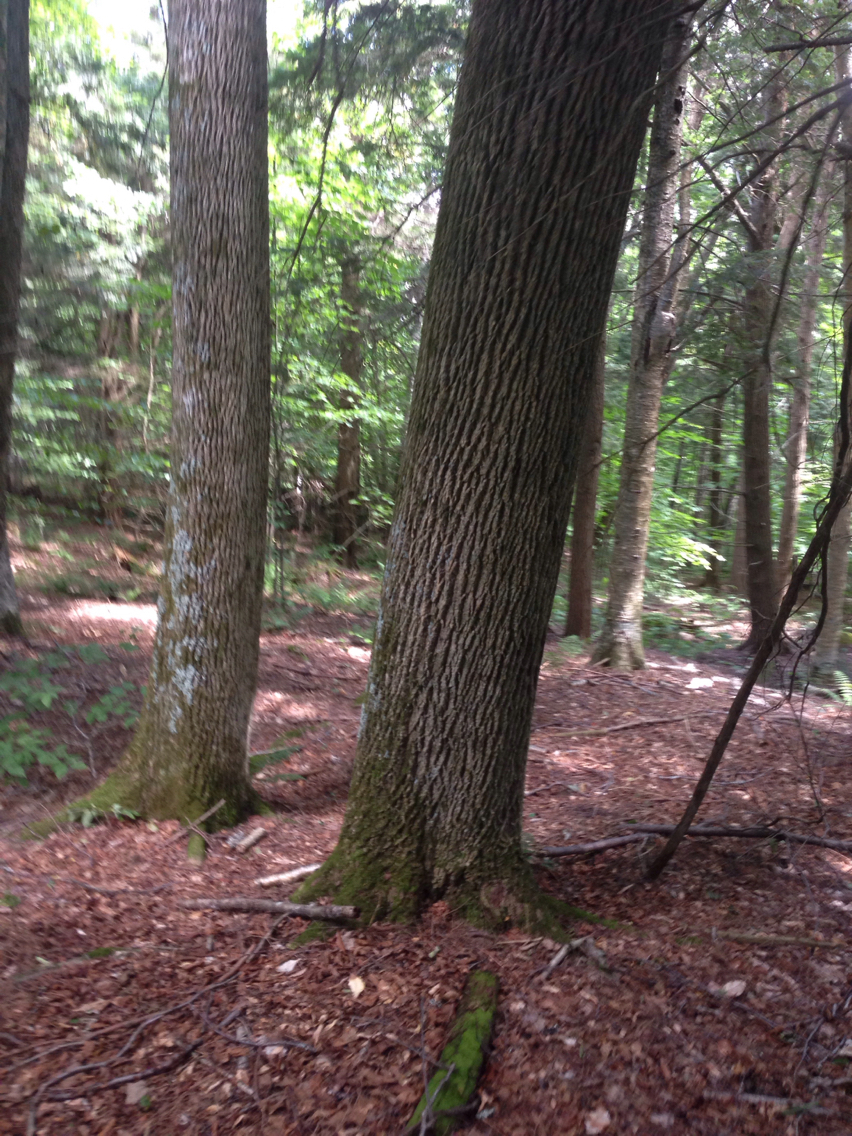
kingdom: Plantae
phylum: Tracheophyta
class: Magnoliopsida
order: Lamiales
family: Oleaceae
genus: Fraxinus
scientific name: Fraxinus americana
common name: White ash
